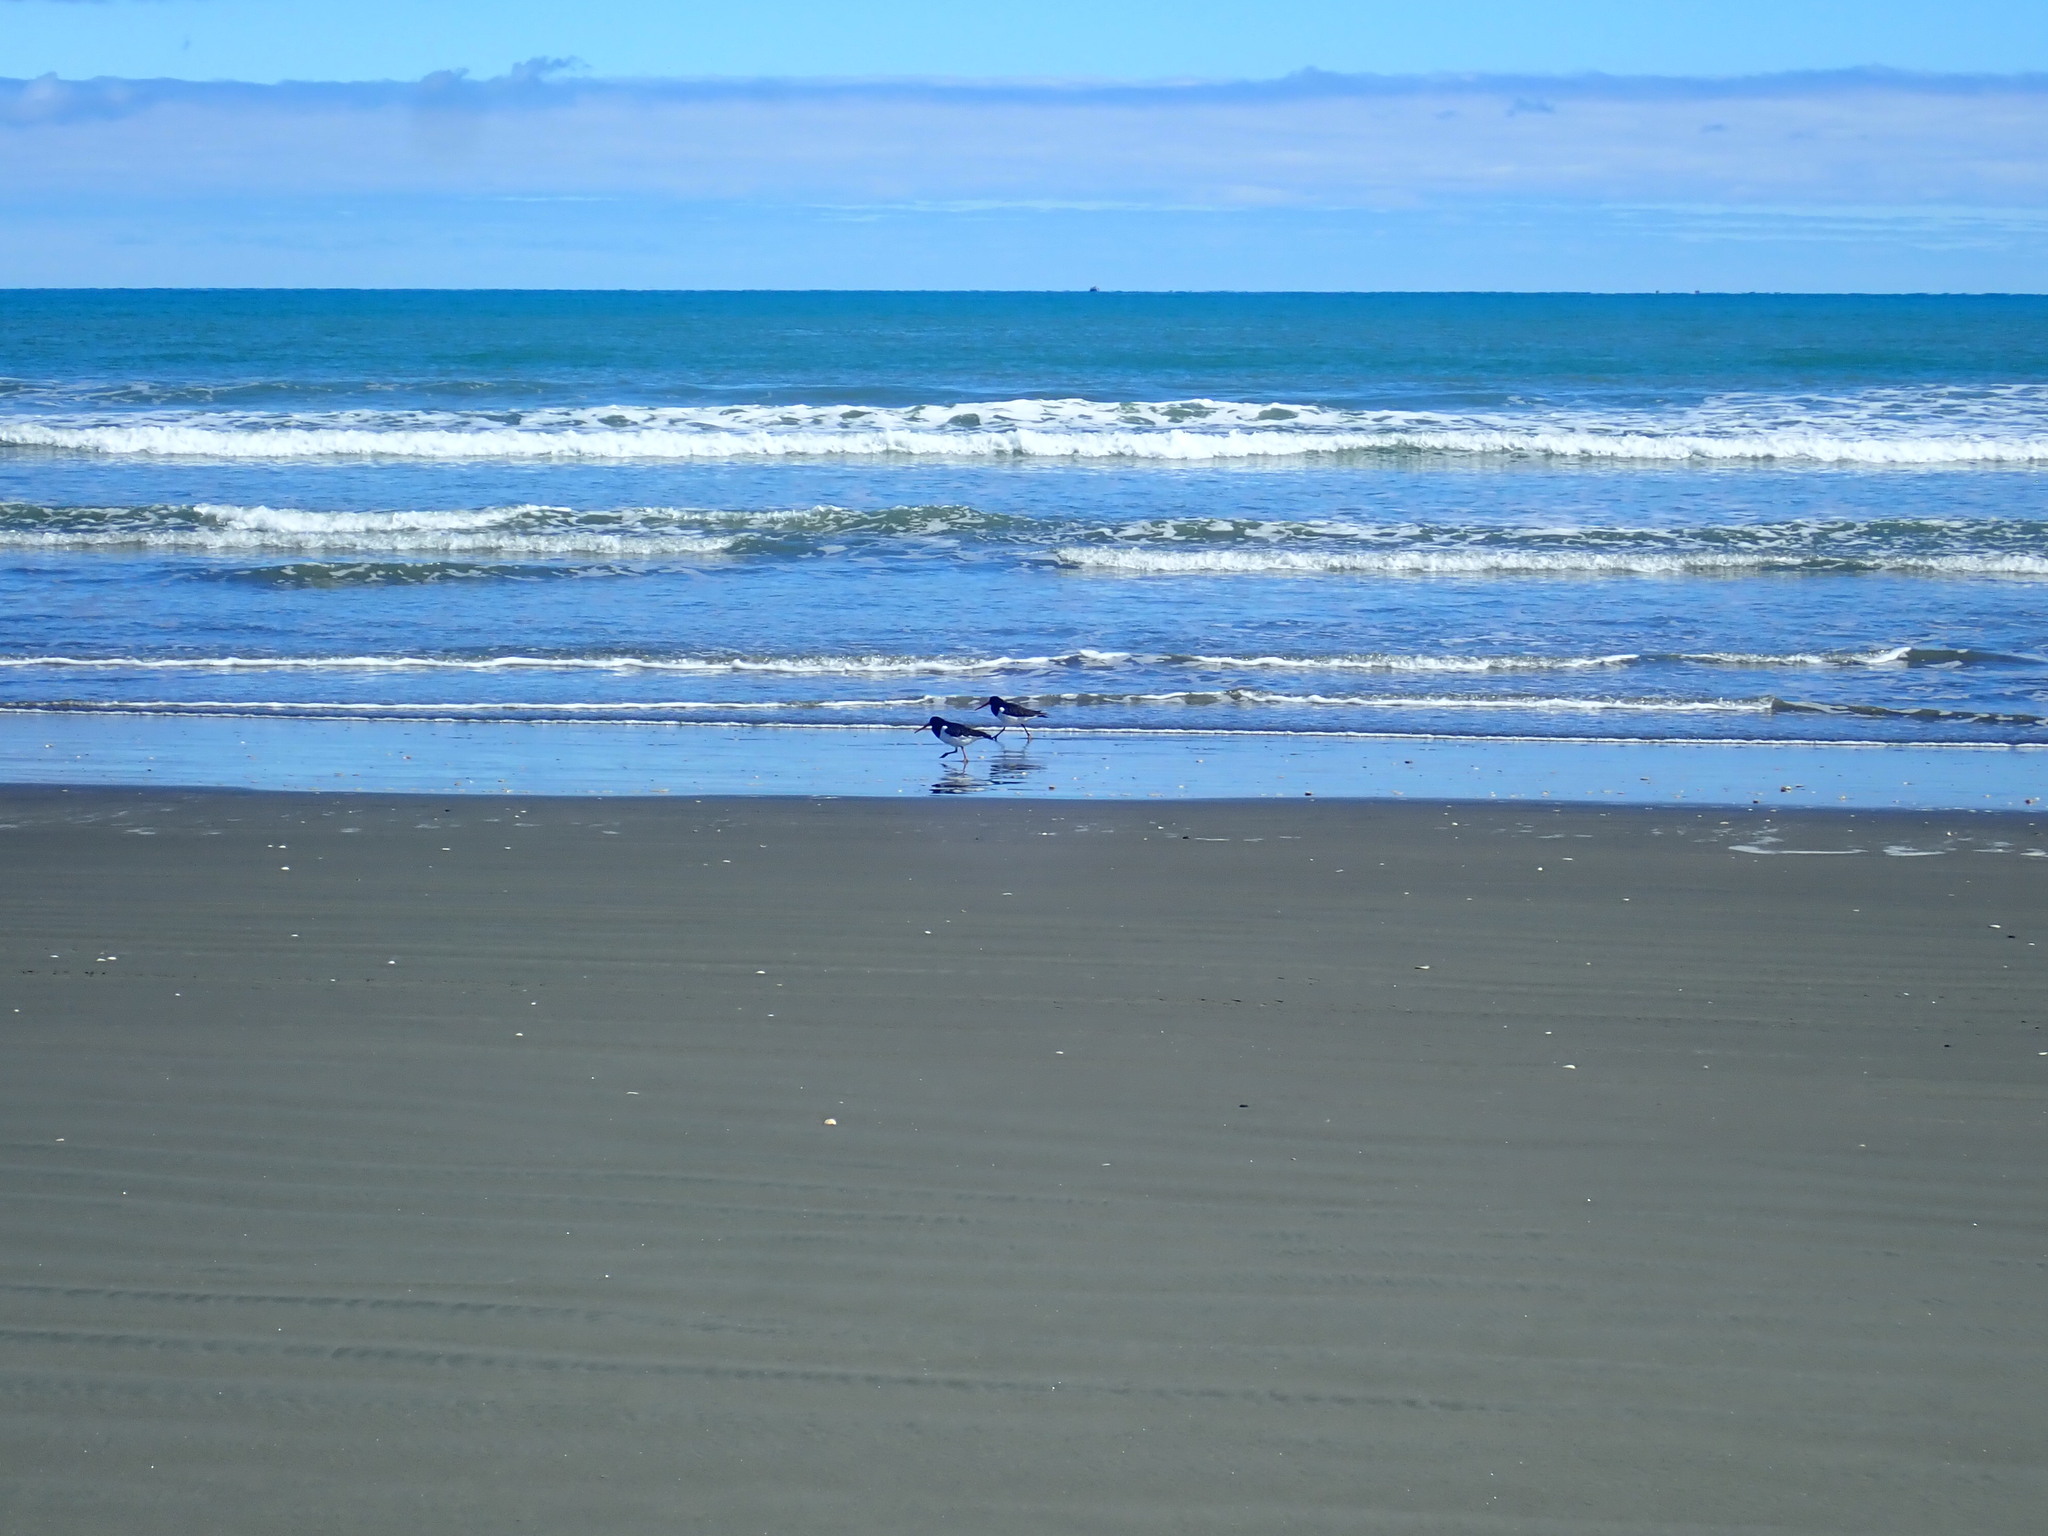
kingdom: Animalia
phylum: Chordata
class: Aves
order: Charadriiformes
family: Haematopodidae
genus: Haematopus
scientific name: Haematopus finschi
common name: South island oystercatcher
